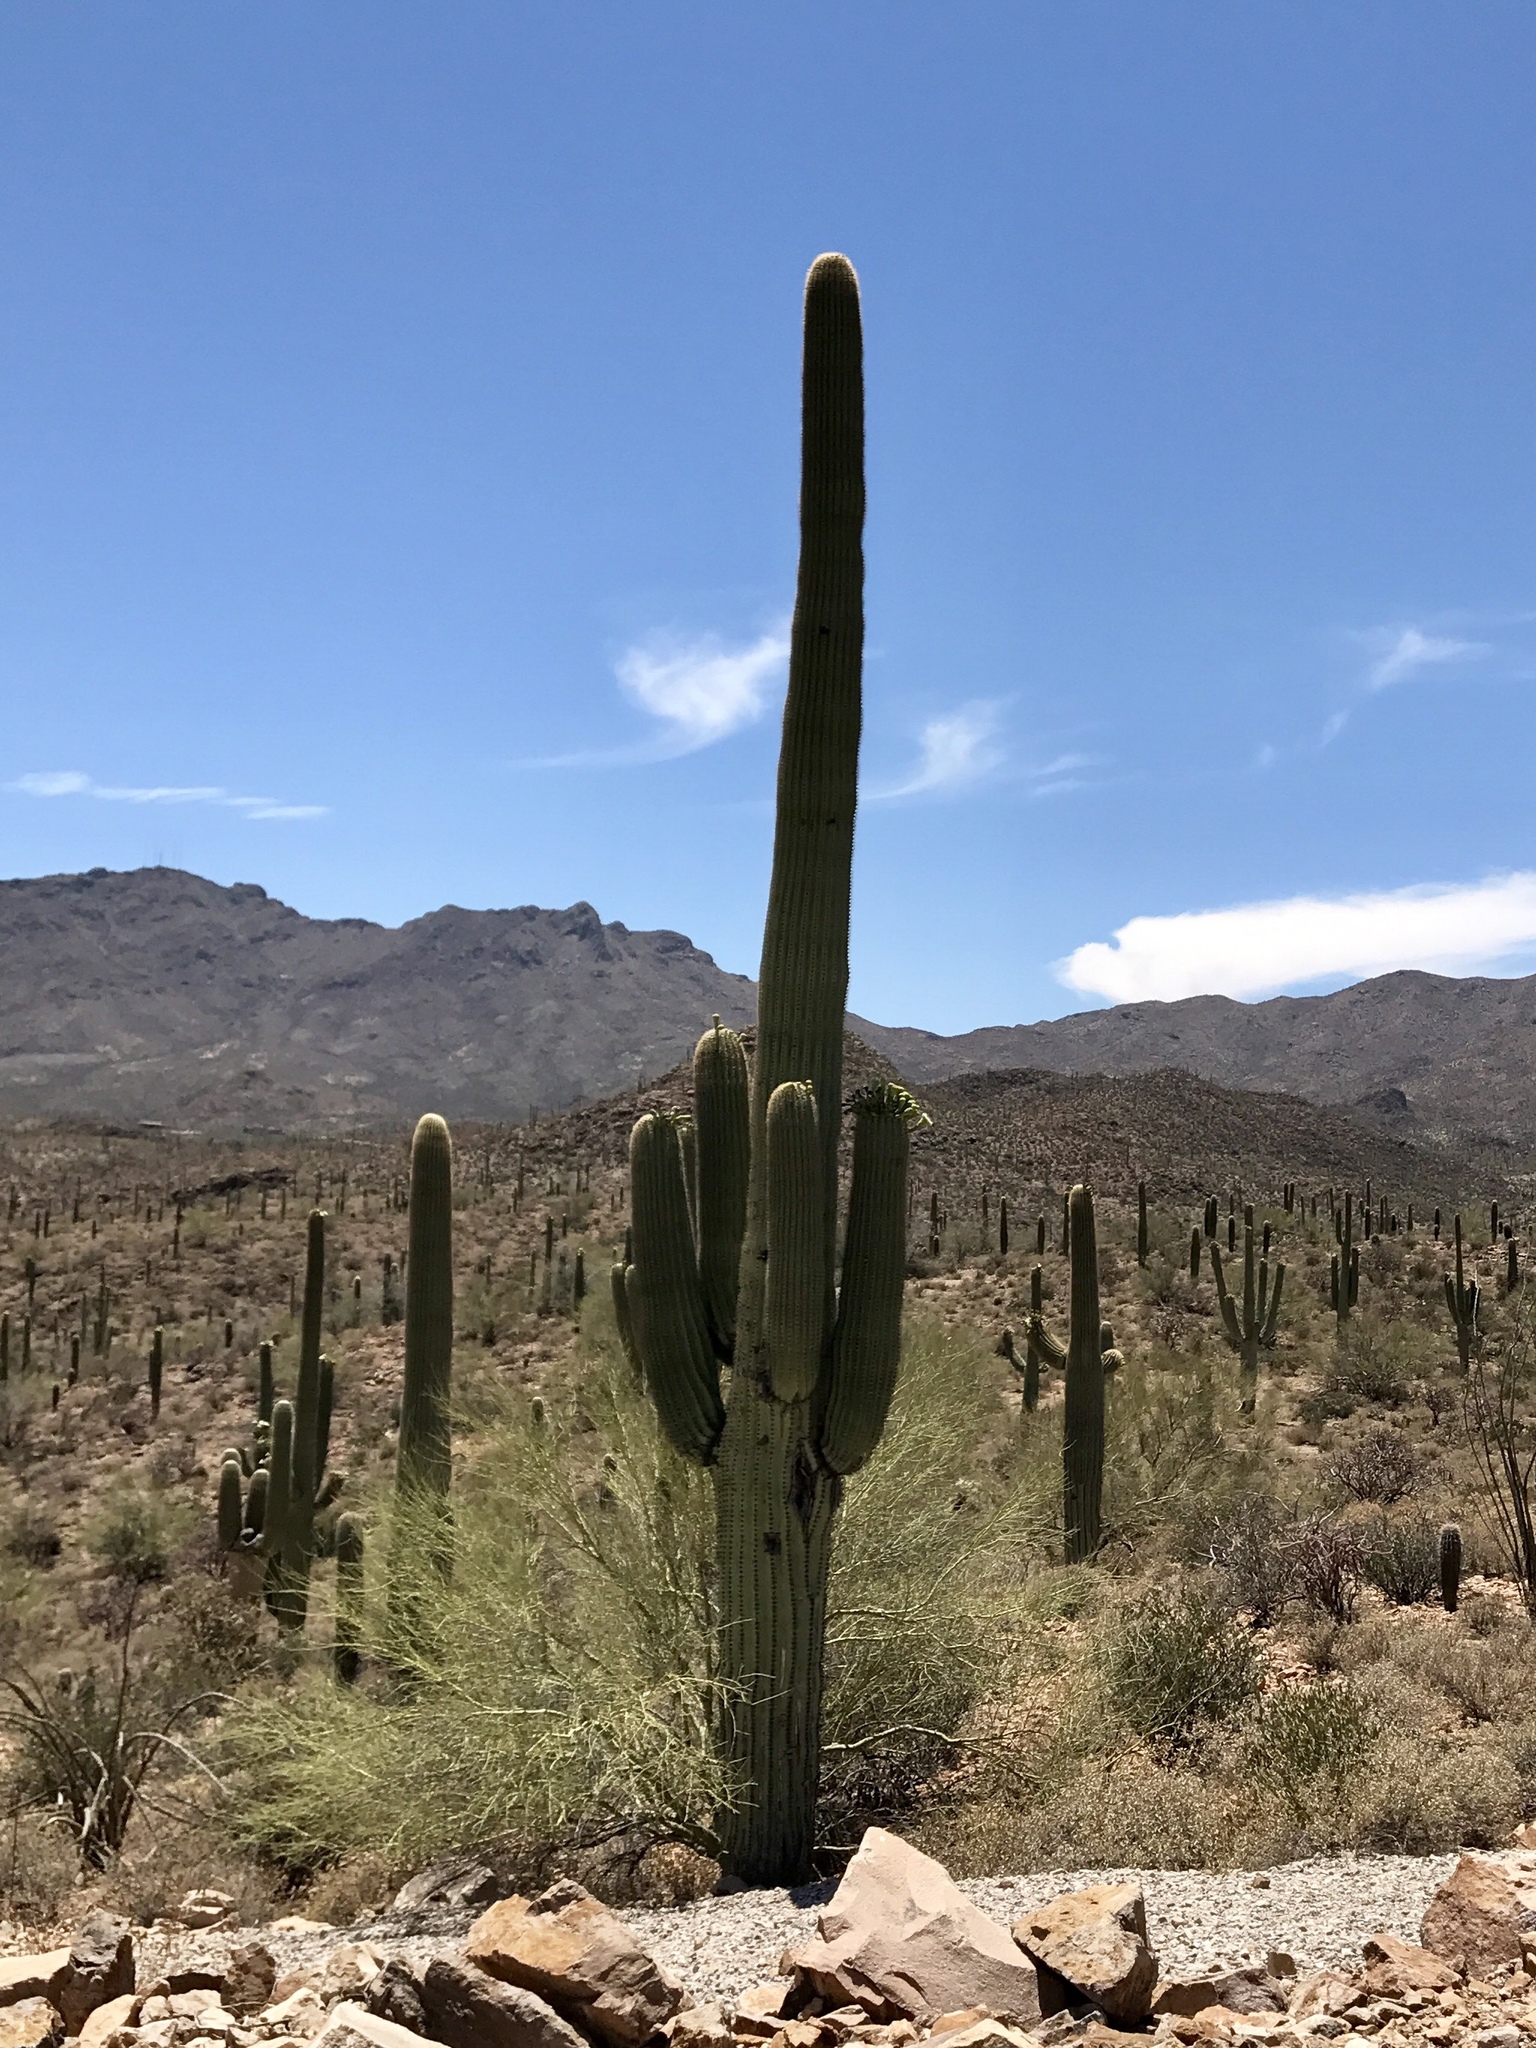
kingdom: Plantae
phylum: Tracheophyta
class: Magnoliopsida
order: Caryophyllales
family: Cactaceae
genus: Carnegiea
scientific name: Carnegiea gigantea
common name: Saguaro
